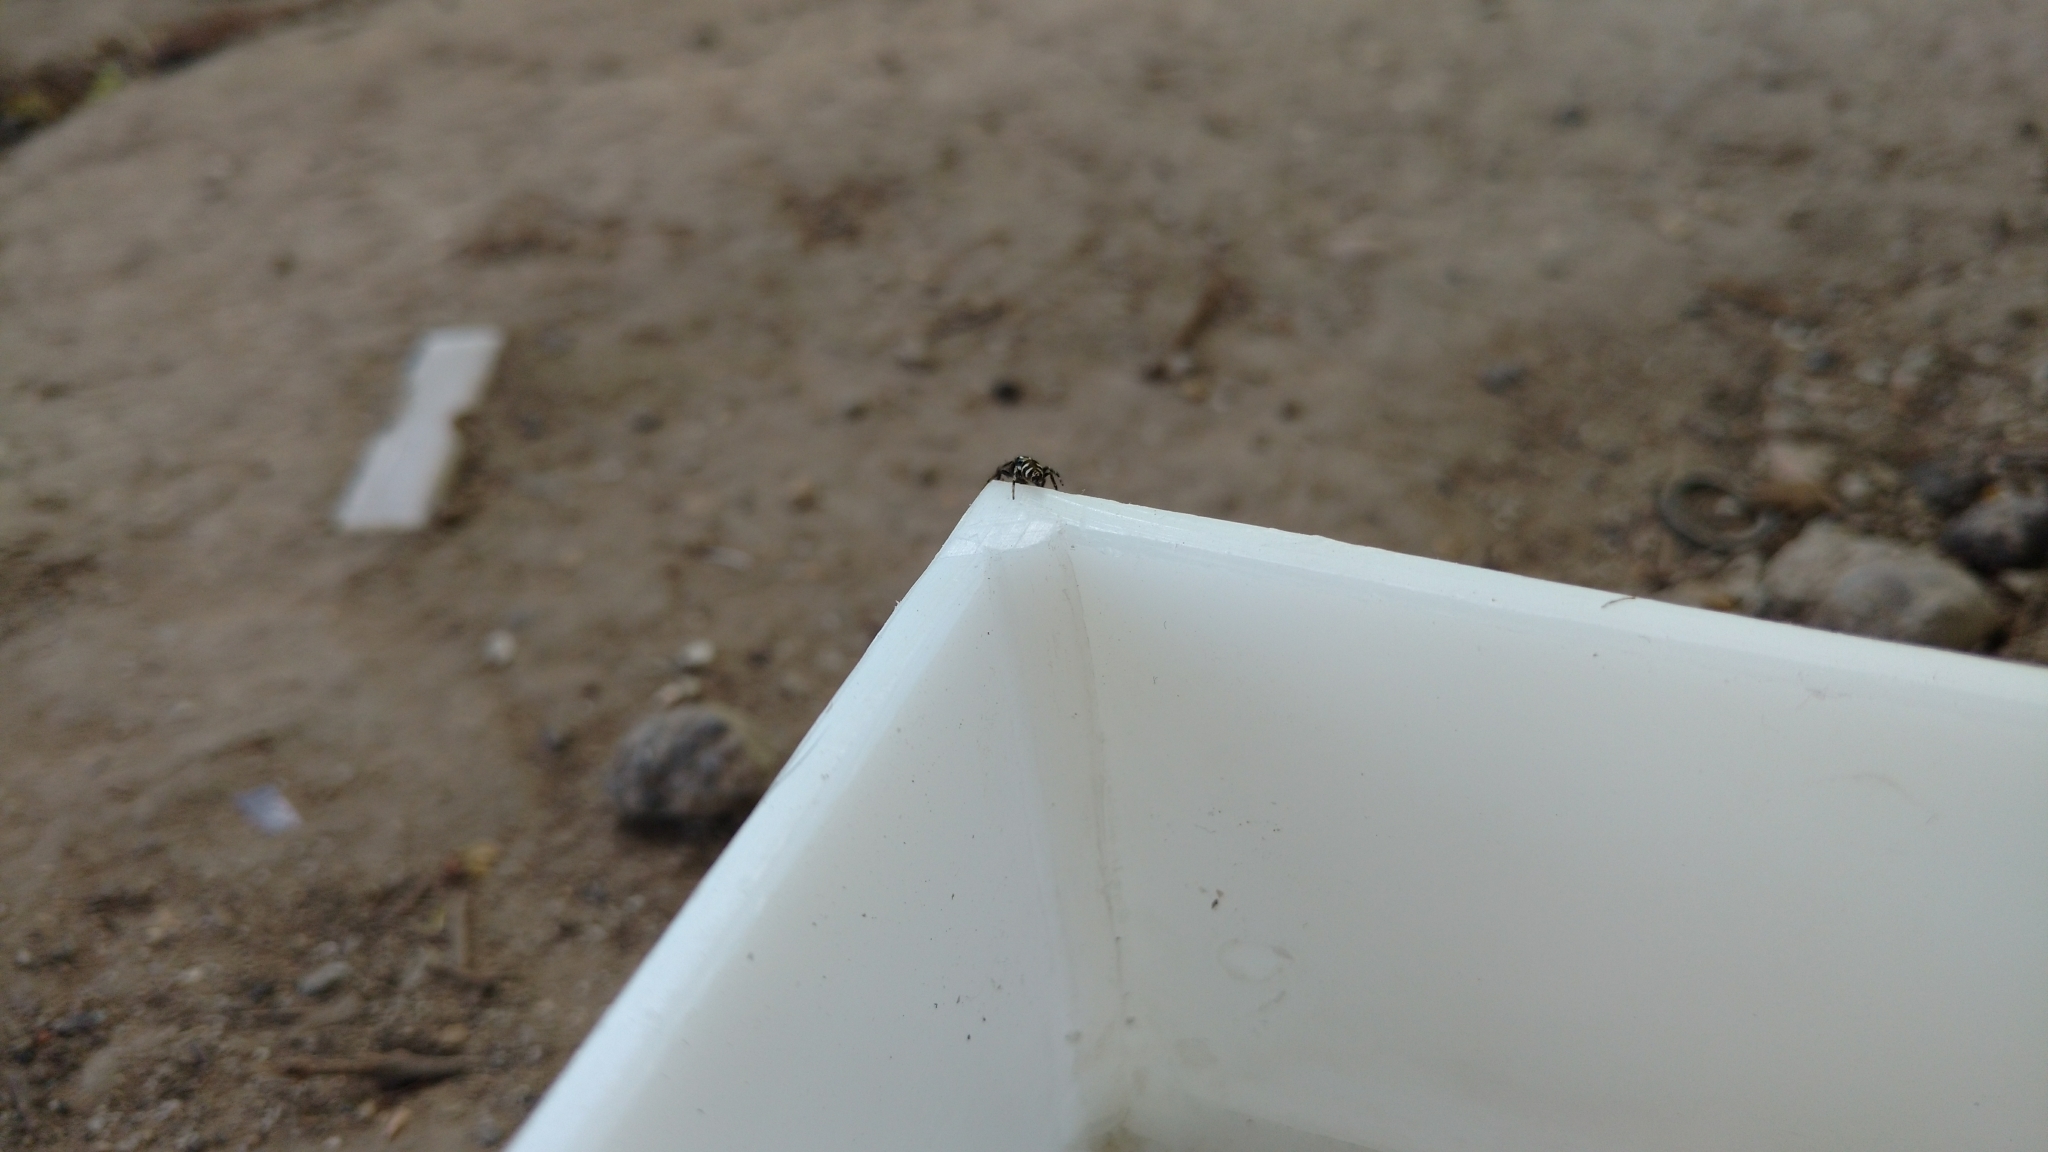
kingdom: Animalia
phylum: Arthropoda
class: Arachnida
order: Araneae
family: Salticidae
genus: Salticus
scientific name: Salticus scenicus
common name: Zebra jumper
